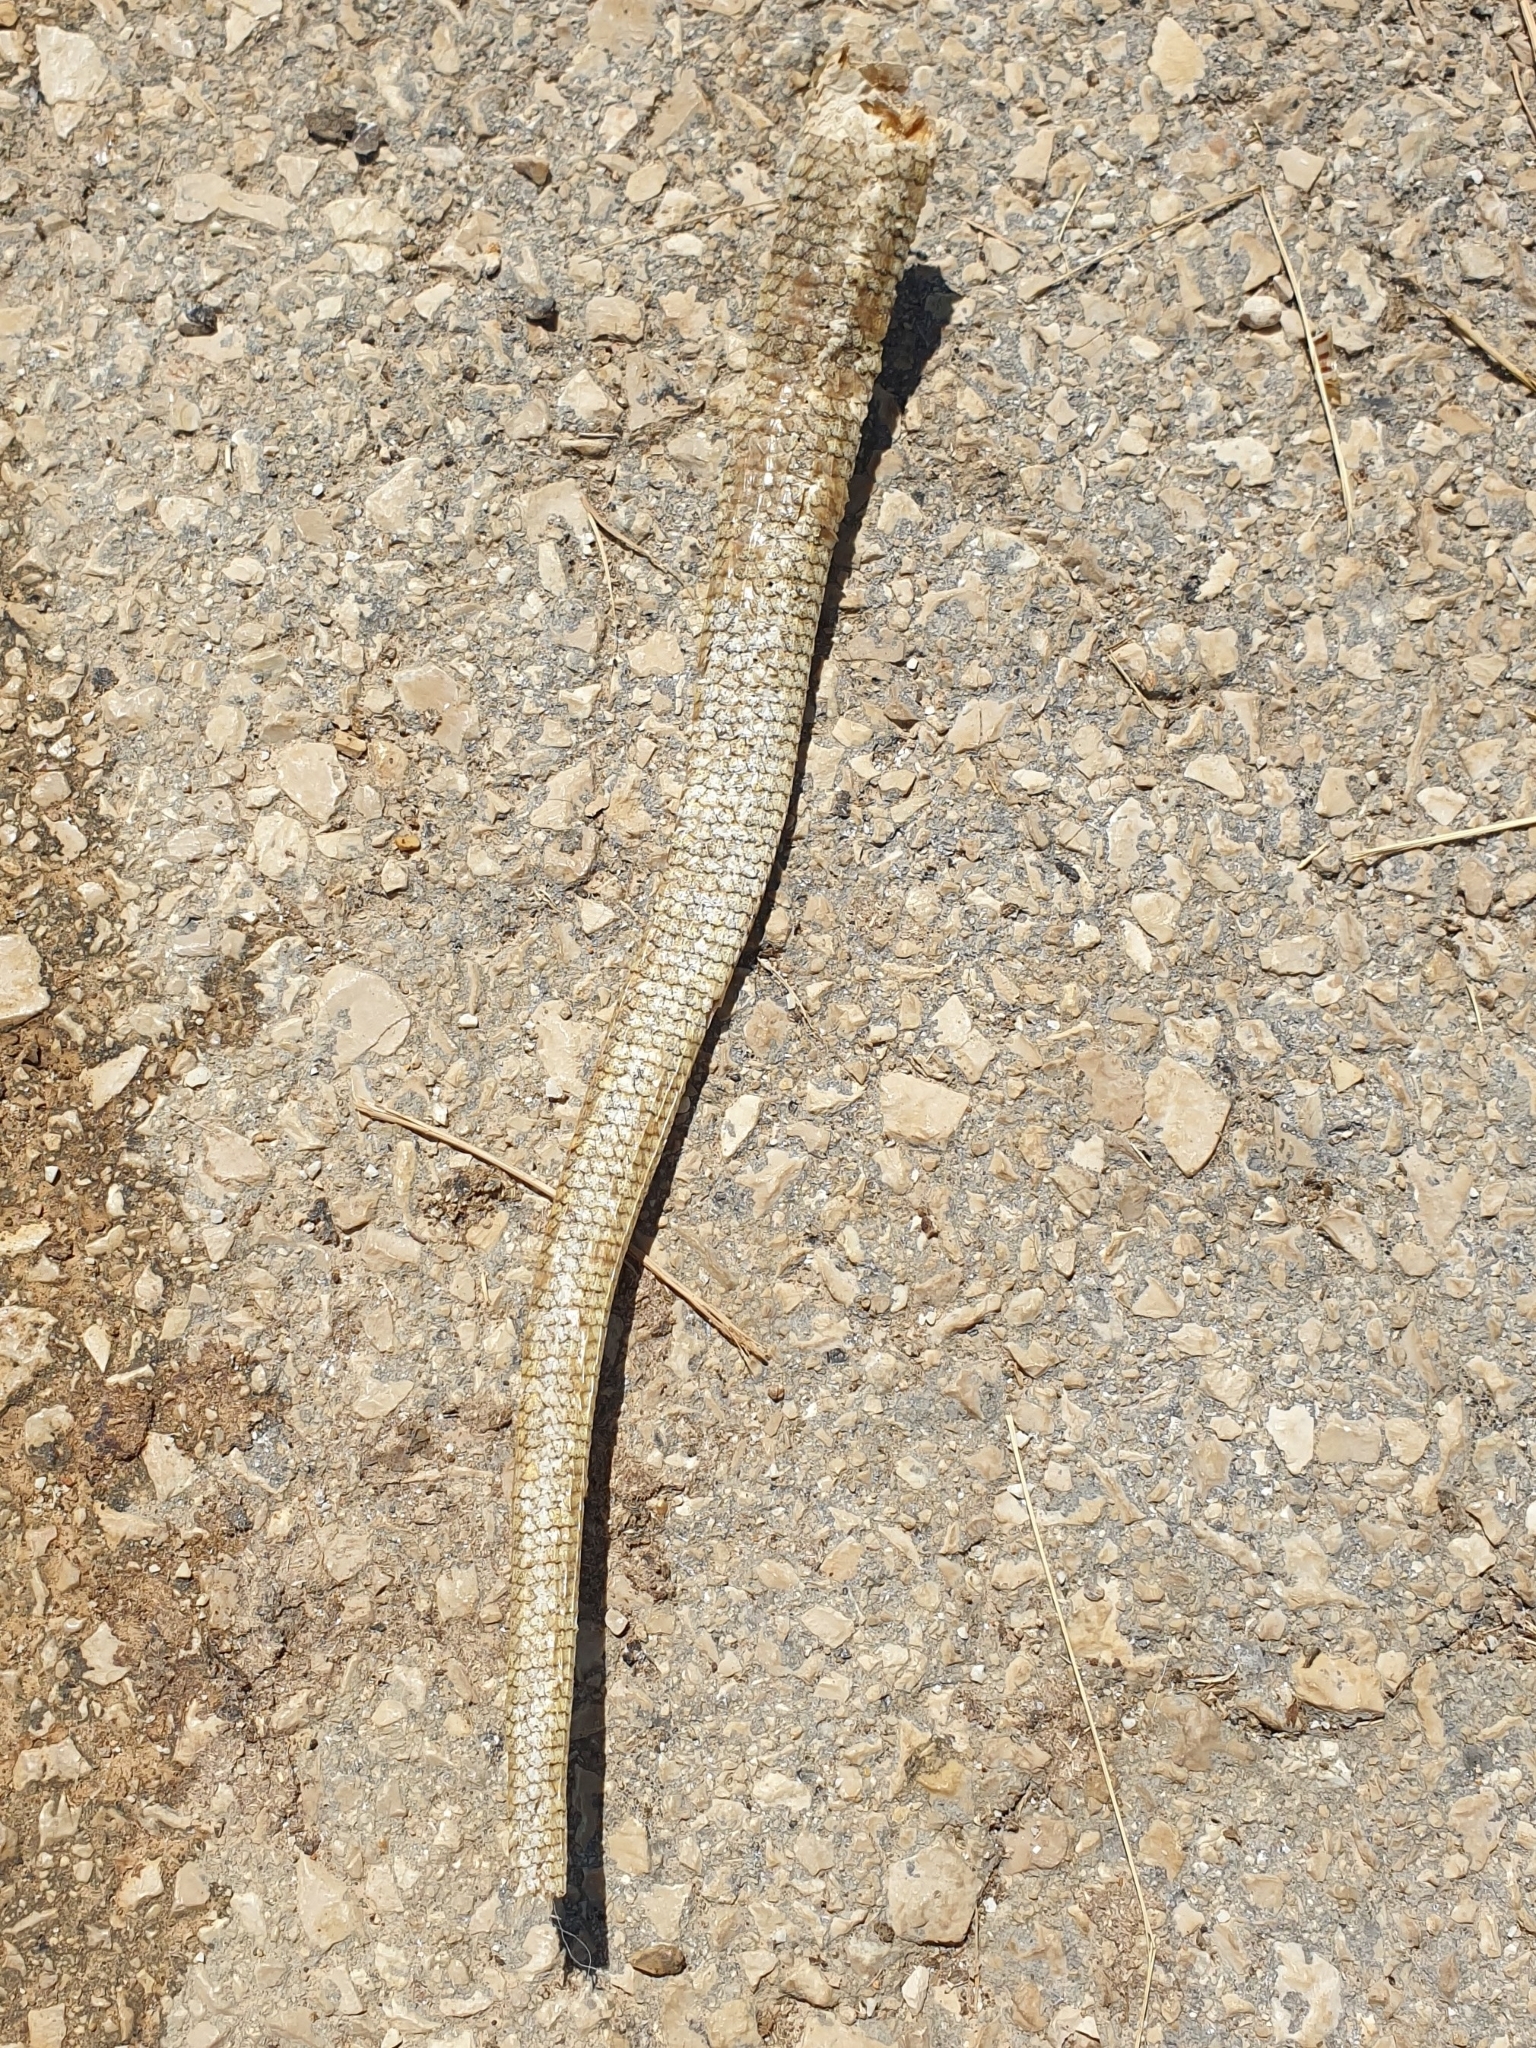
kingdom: Animalia
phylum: Chordata
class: Squamata
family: Anguidae
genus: Pseudopus
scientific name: Pseudopus apodus
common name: European glass lizard
